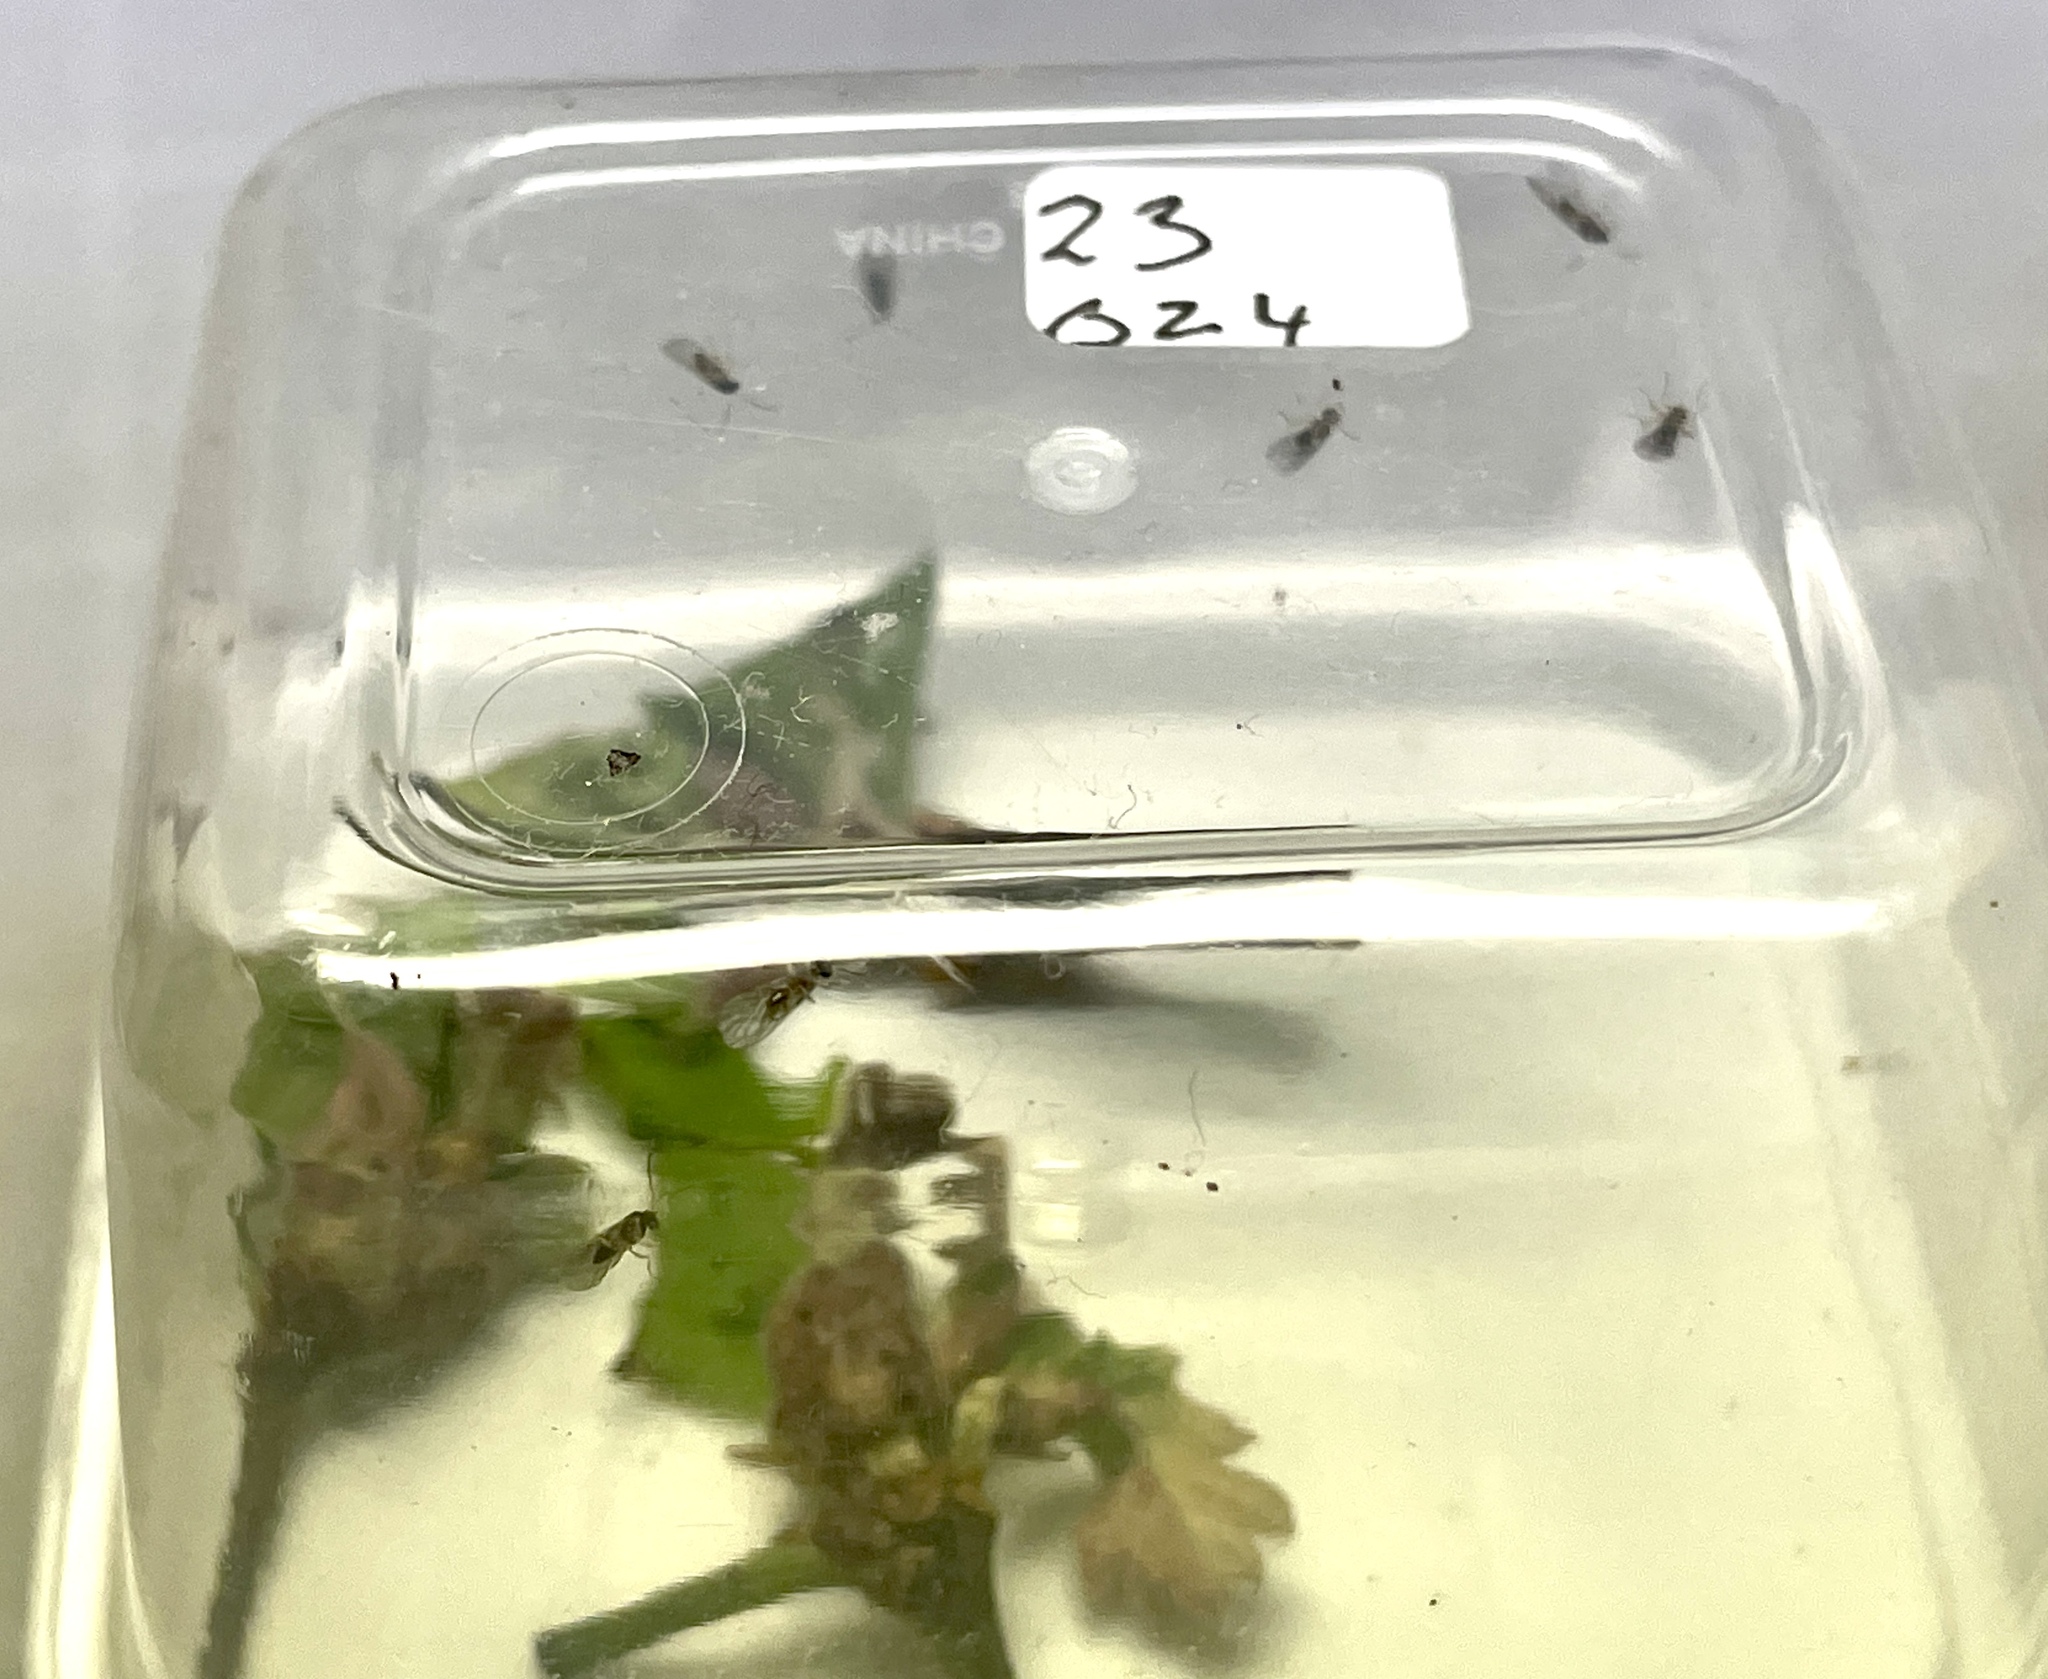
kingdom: Animalia
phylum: Arthropoda
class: Insecta
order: Hymenoptera
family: Cynipidae
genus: Neuroterus
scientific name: Neuroterus minutulus
